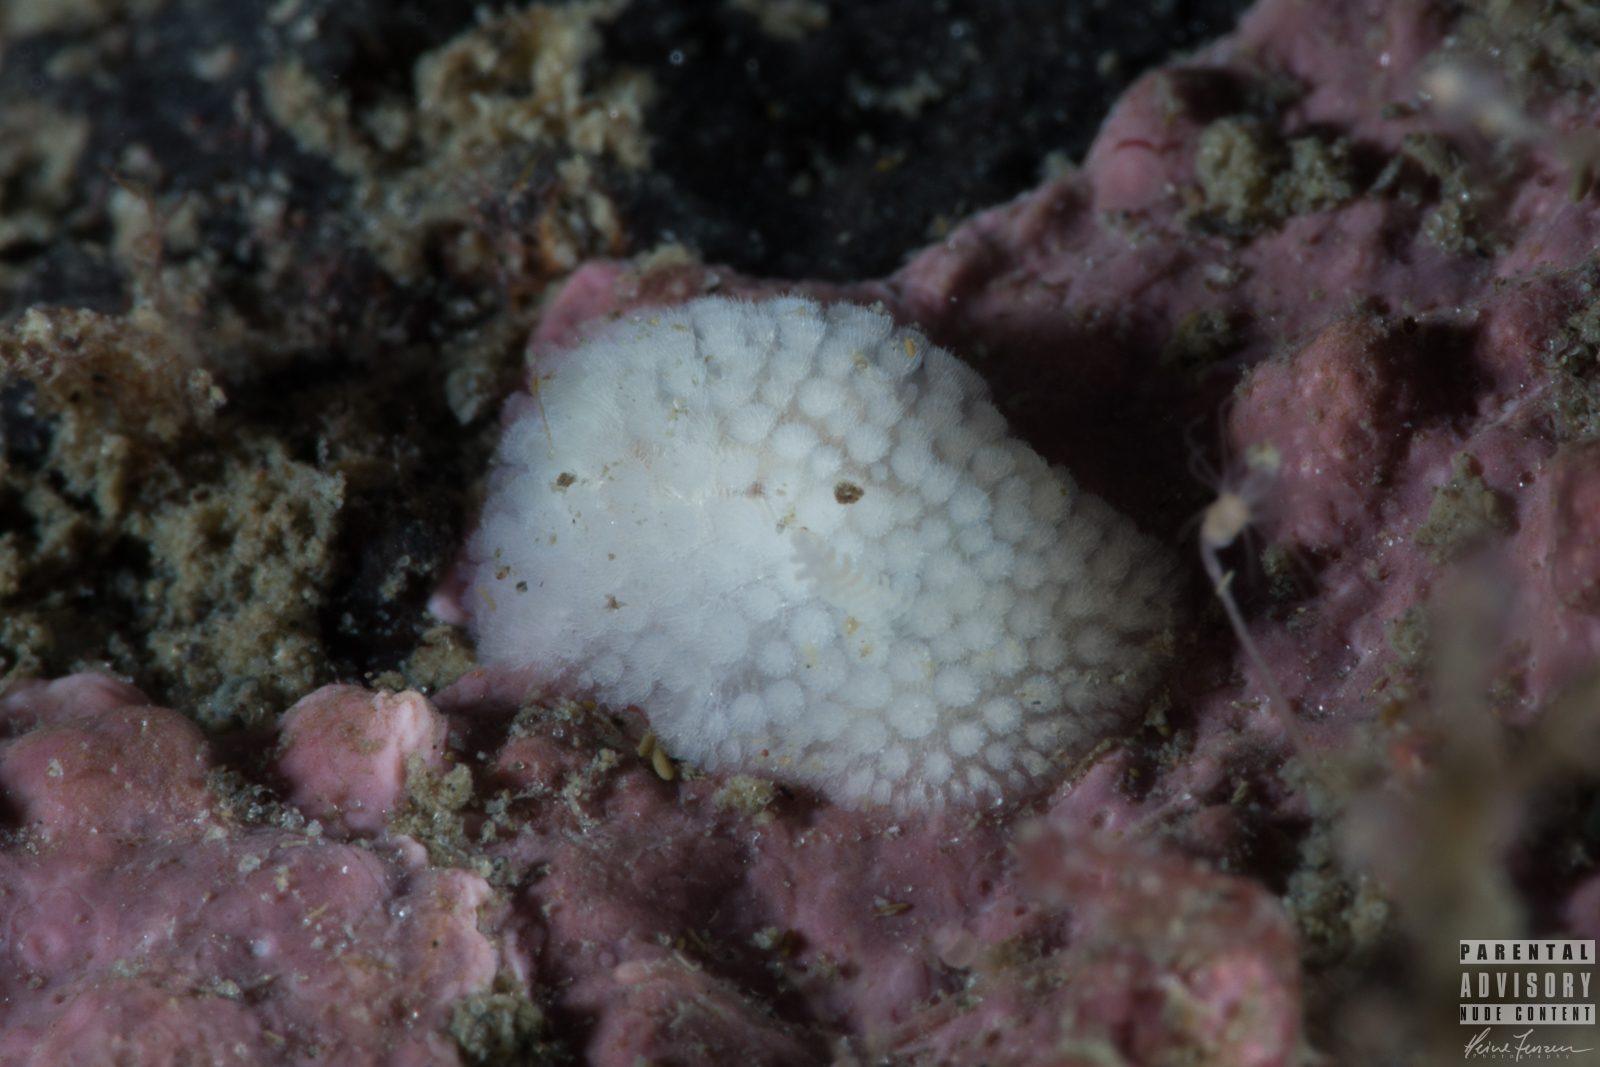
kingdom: Animalia
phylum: Mollusca
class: Gastropoda
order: Nudibranchia
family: Onchidorididae
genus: Onchidoris
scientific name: Onchidoris muricata
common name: Rough doris
